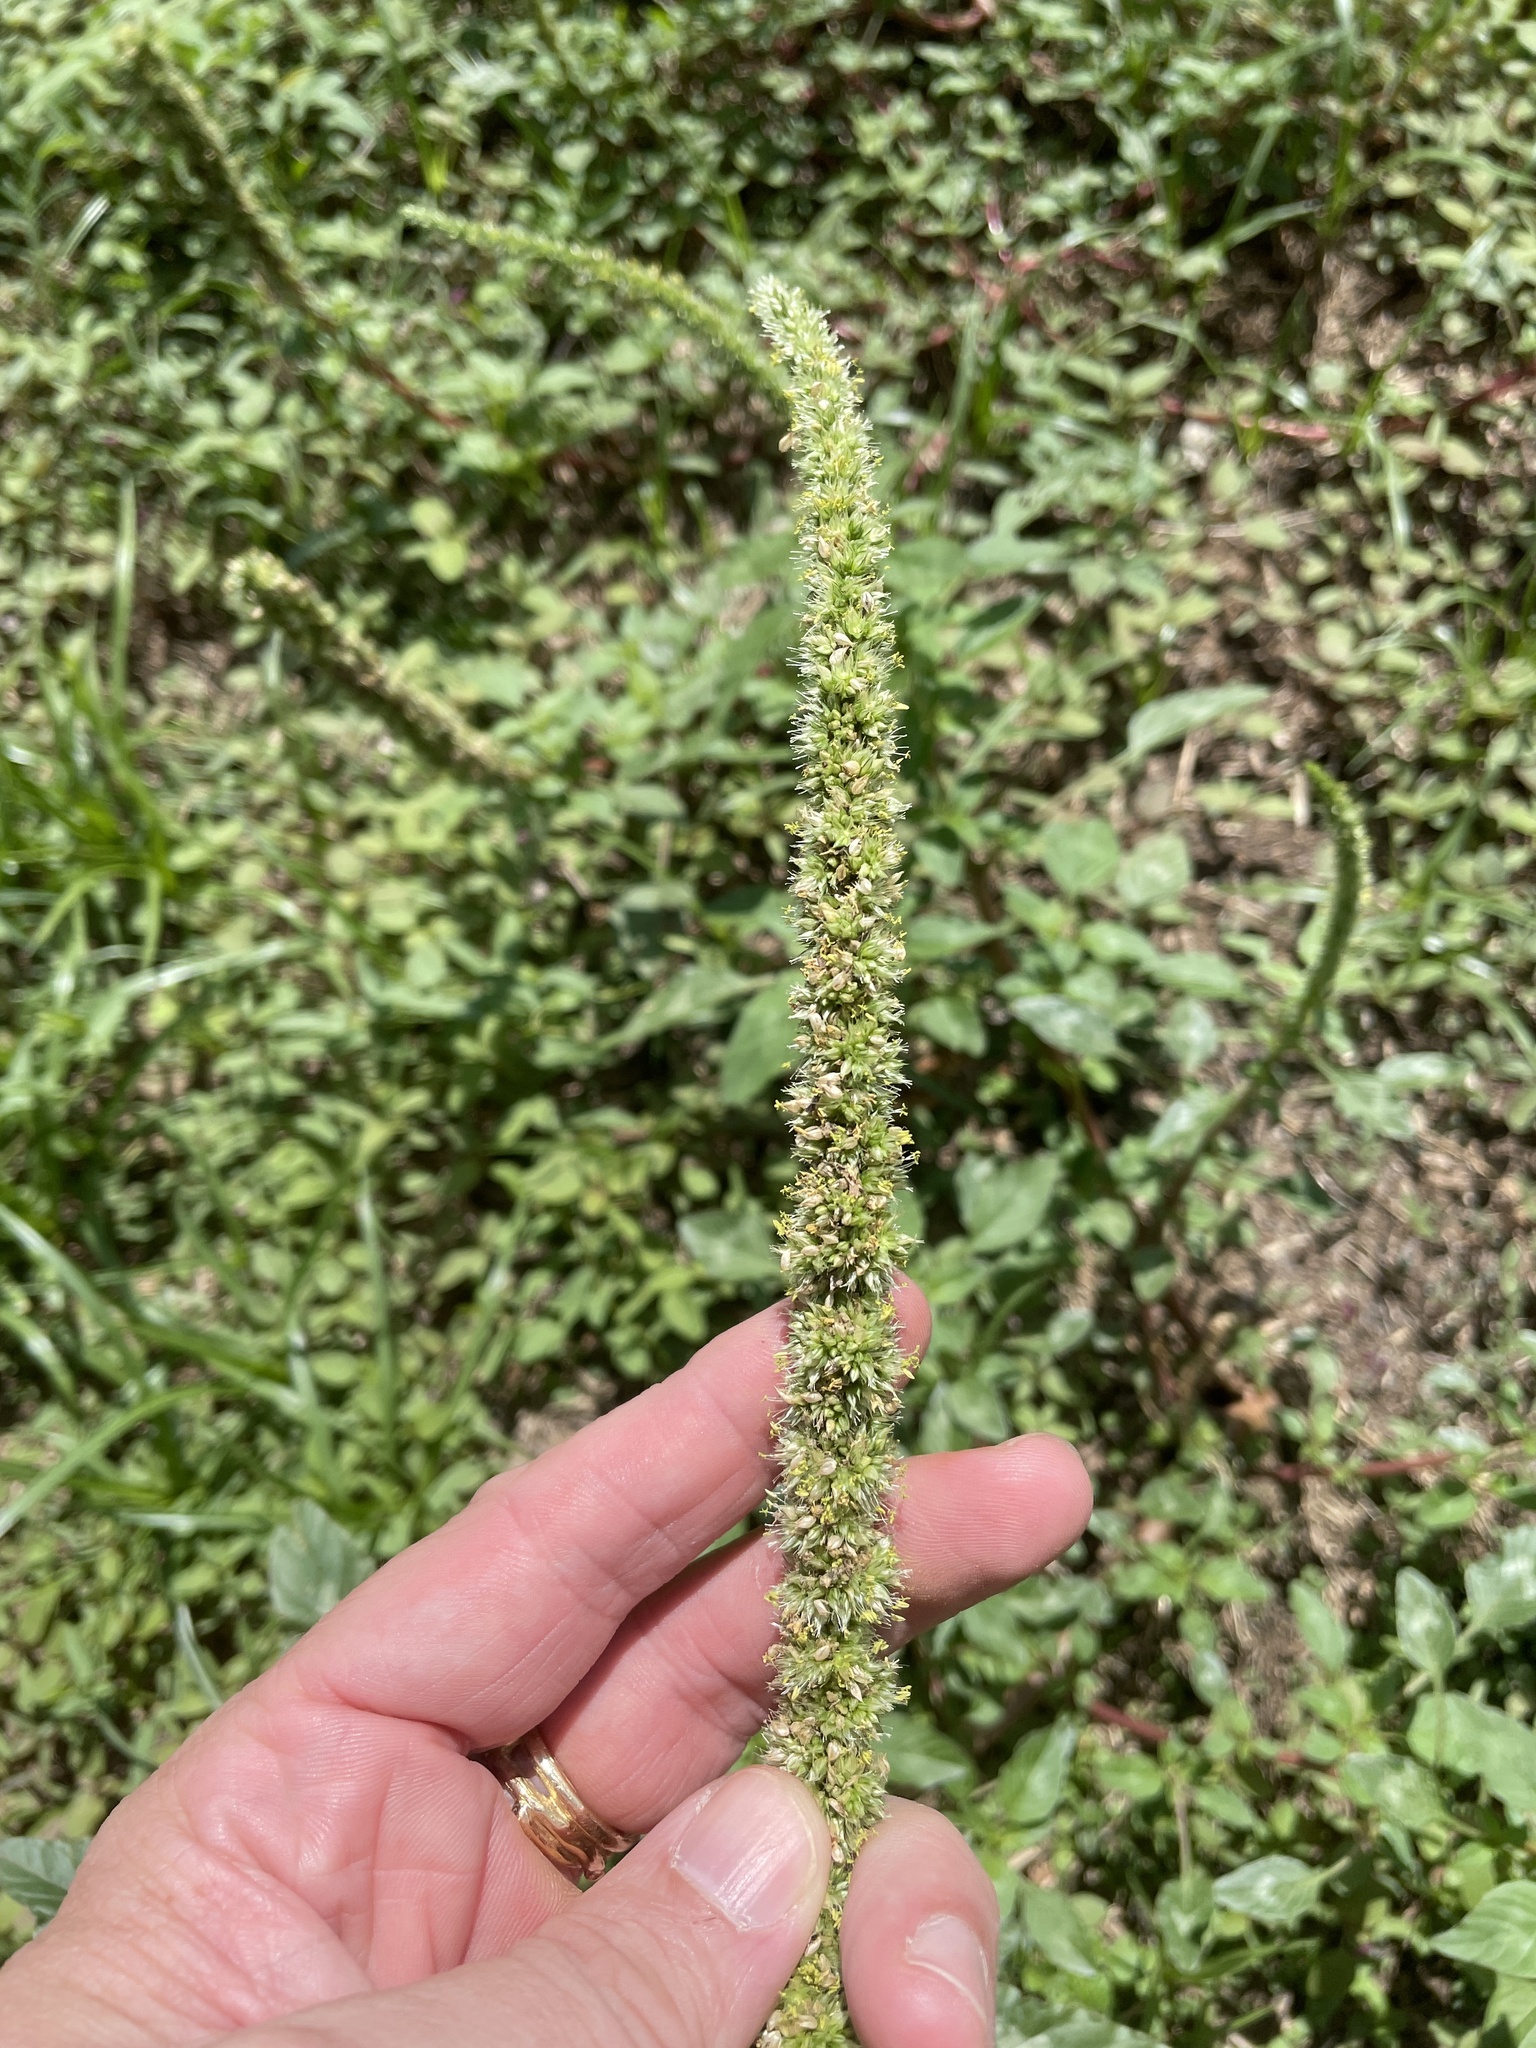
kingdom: Plantae
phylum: Tracheophyta
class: Magnoliopsida
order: Caryophyllales
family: Amaranthaceae
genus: Amaranthus
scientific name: Amaranthus palmeri
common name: Dioecious amaranth
